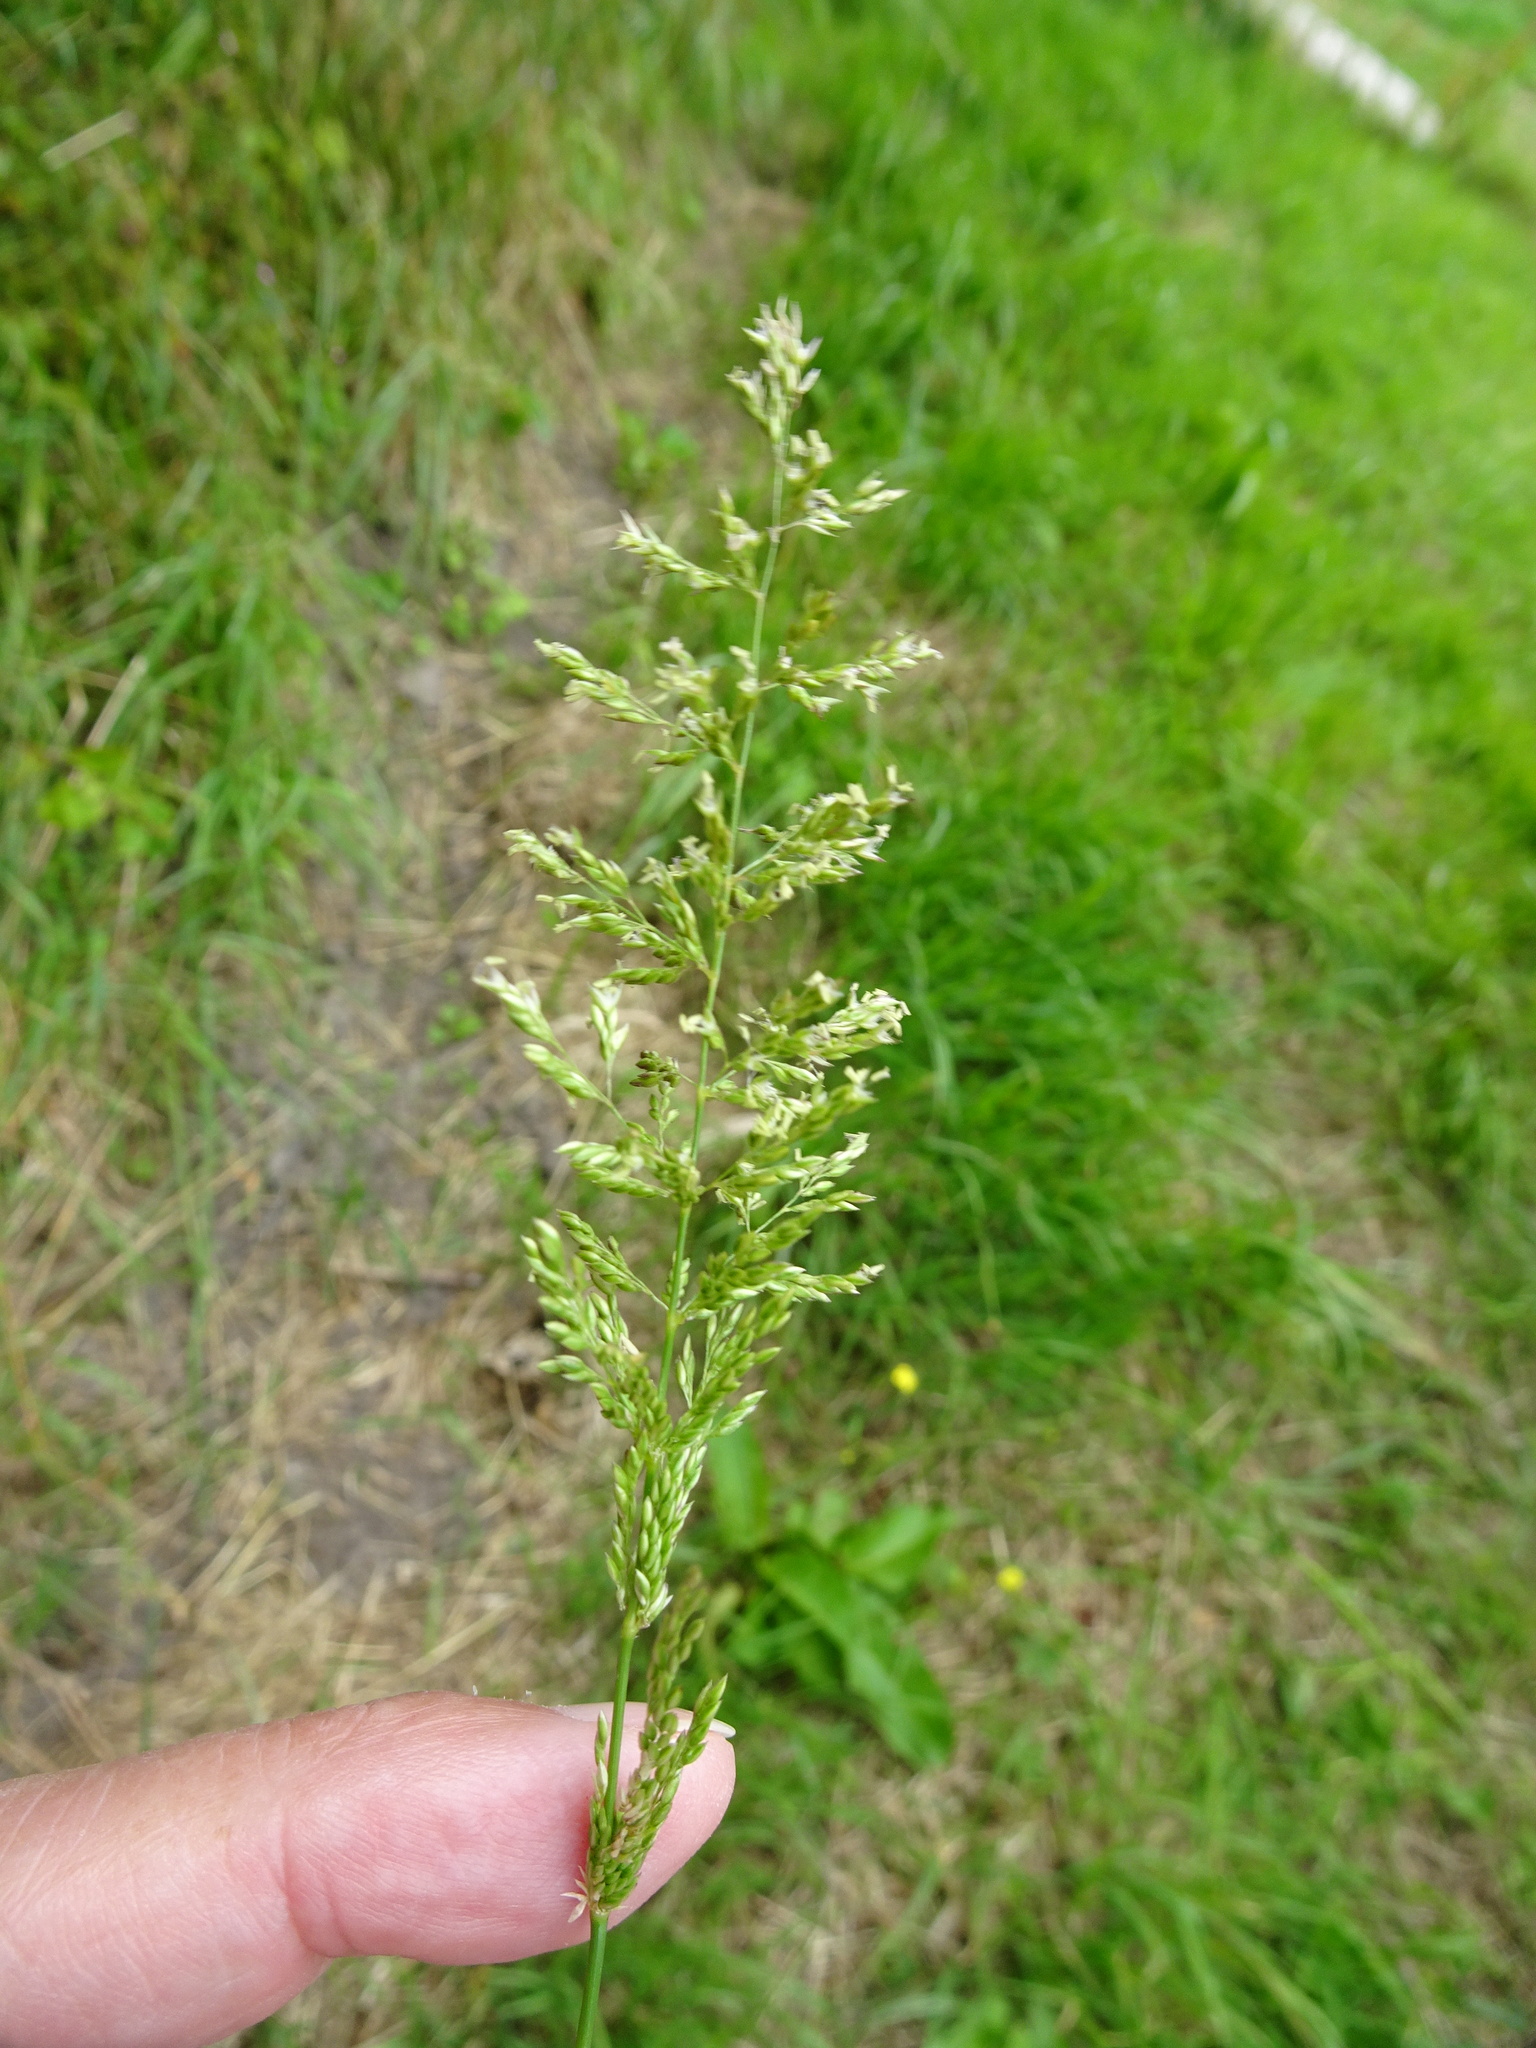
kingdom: Plantae
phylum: Tracheophyta
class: Liliopsida
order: Poales
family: Poaceae
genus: Poa
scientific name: Poa trivialis
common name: Rough bluegrass
